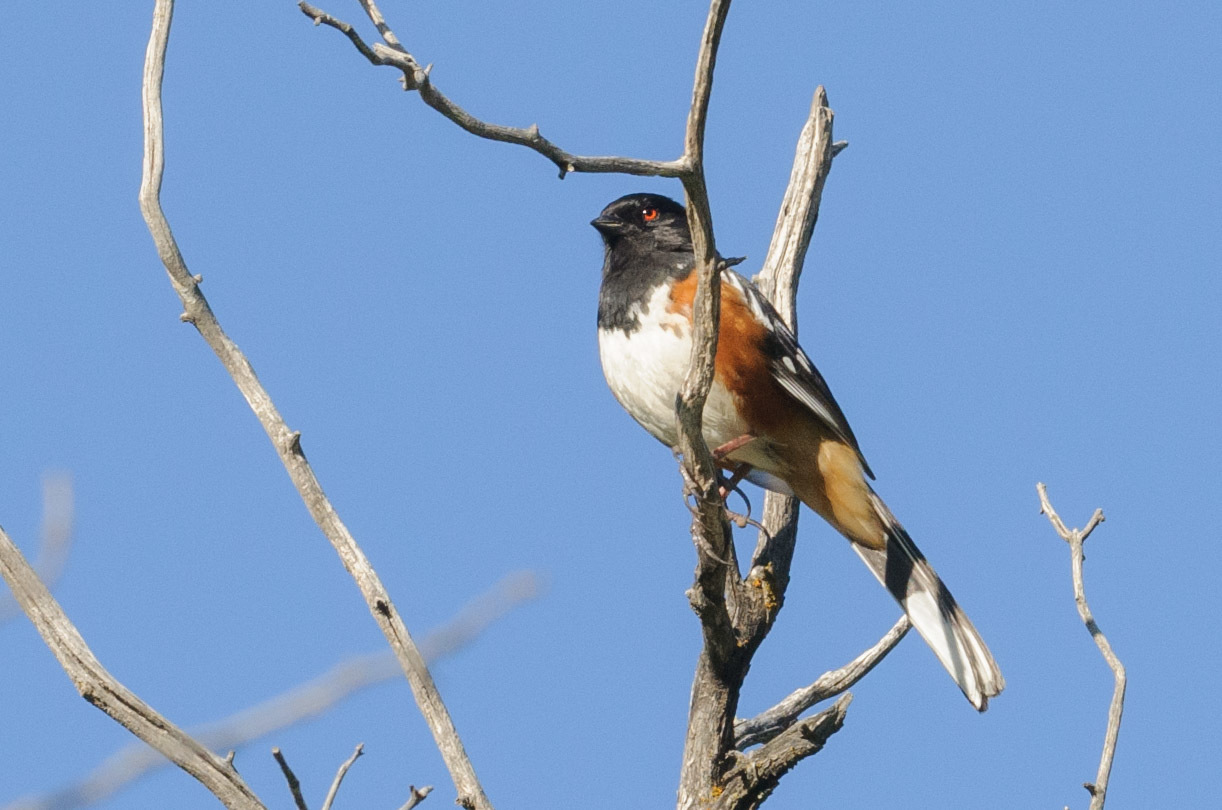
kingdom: Animalia
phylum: Chordata
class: Aves
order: Passeriformes
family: Passerellidae
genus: Pipilo
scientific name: Pipilo maculatus
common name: Spotted towhee
